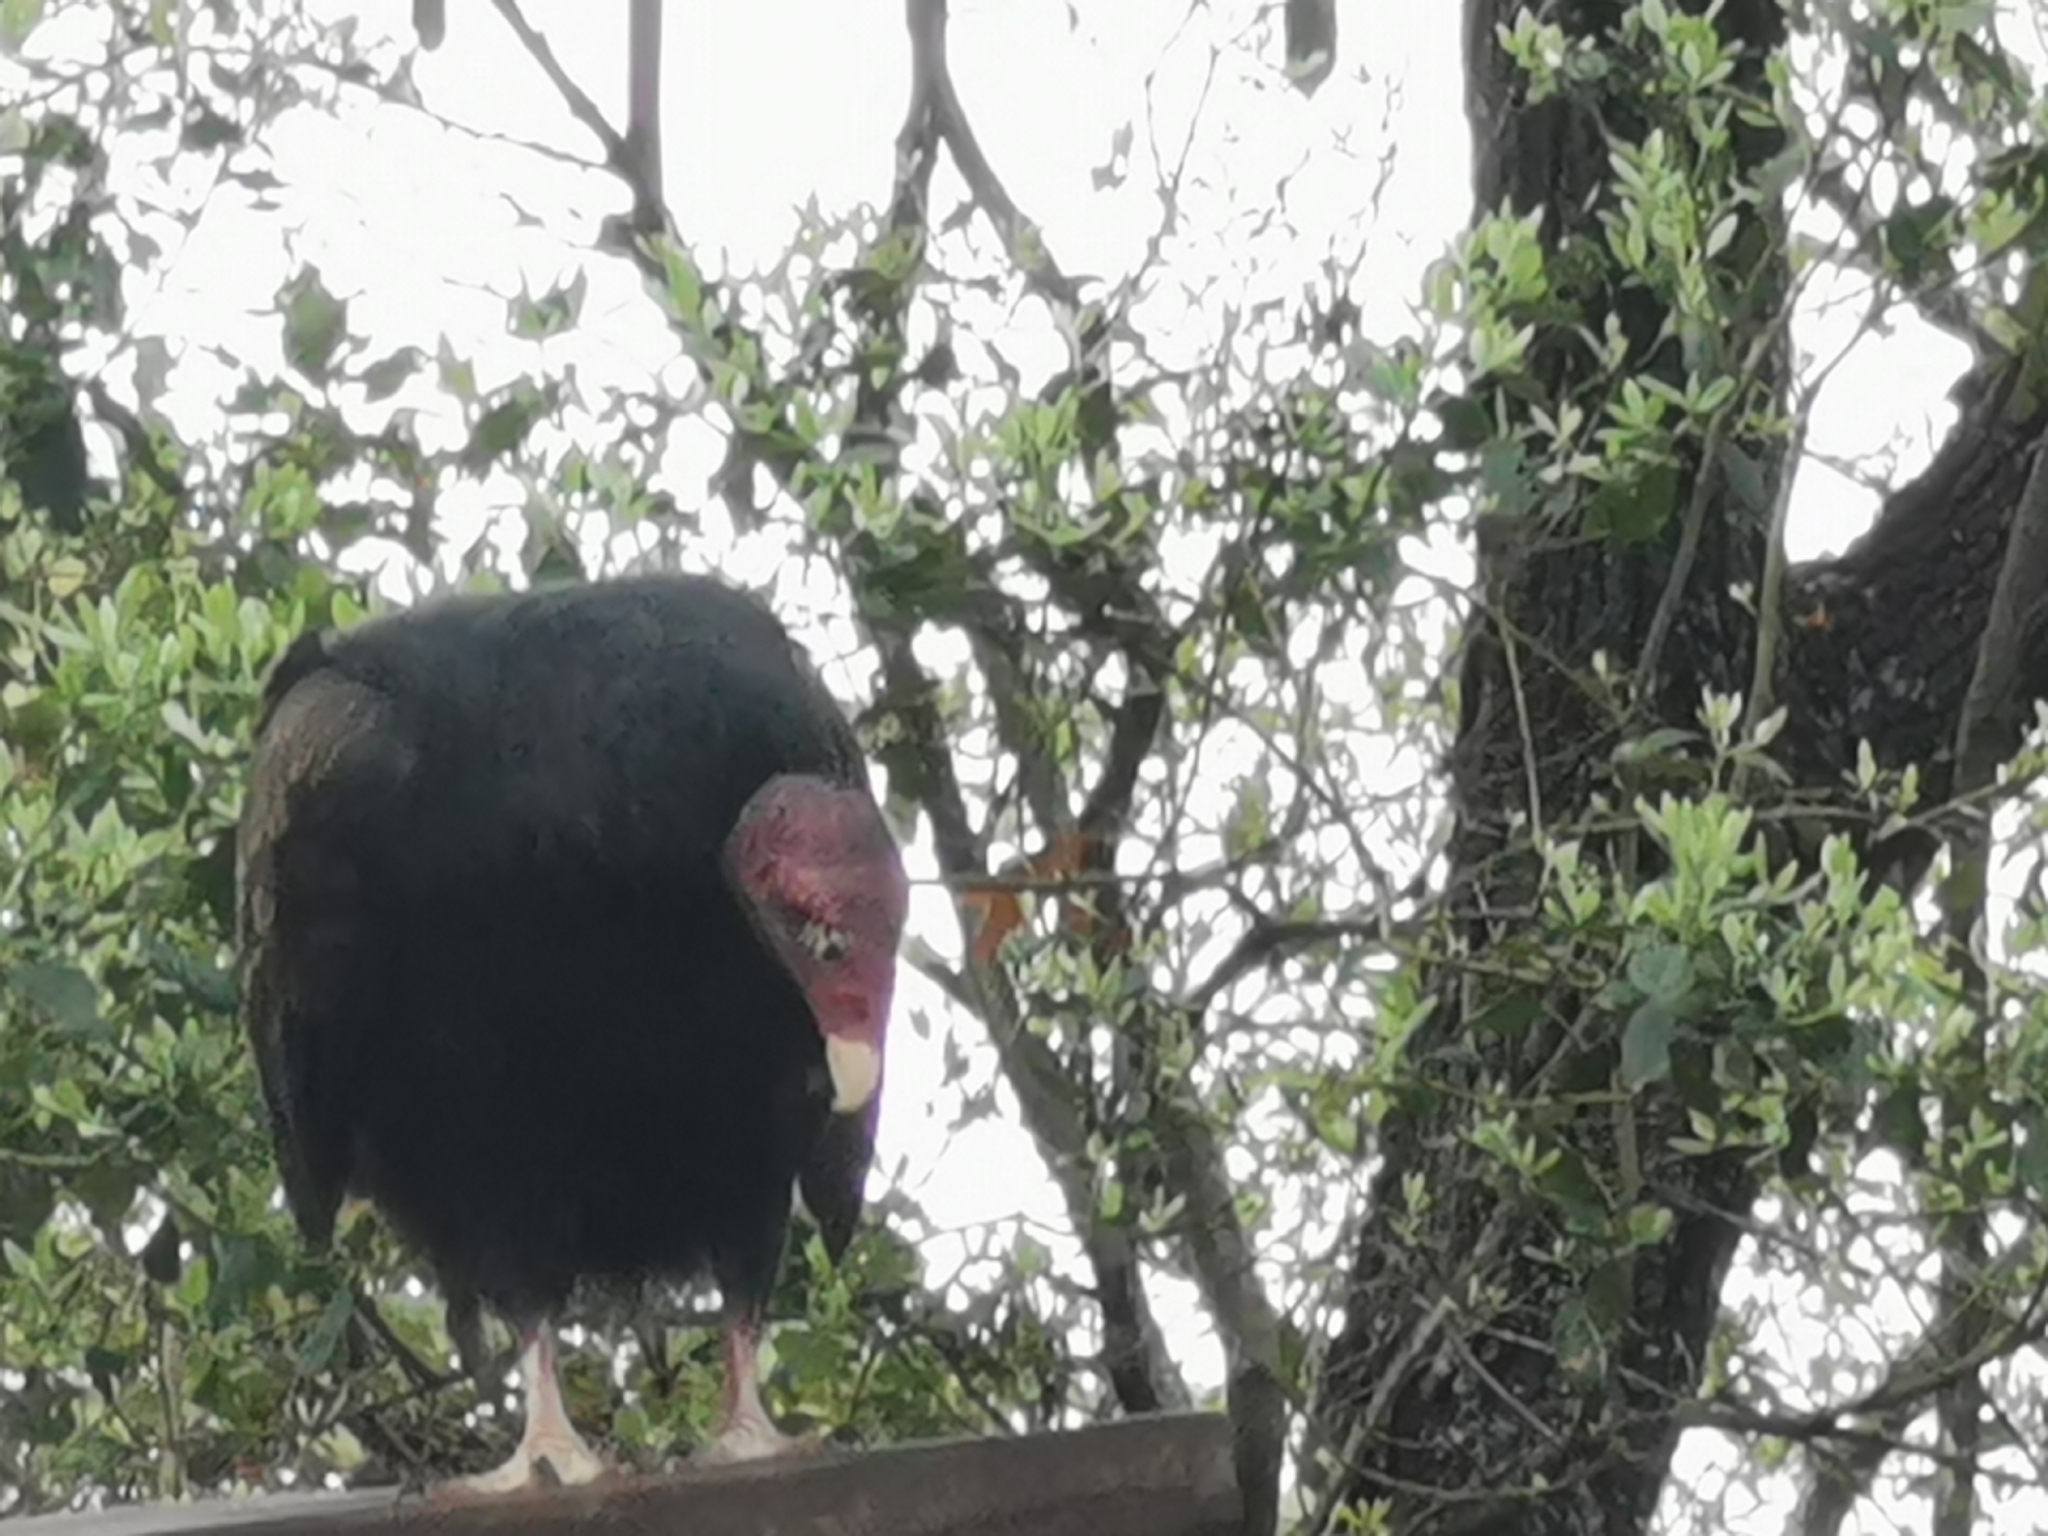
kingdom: Animalia
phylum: Chordata
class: Aves
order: Accipitriformes
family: Cathartidae
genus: Cathartes
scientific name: Cathartes aura
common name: Turkey vulture
